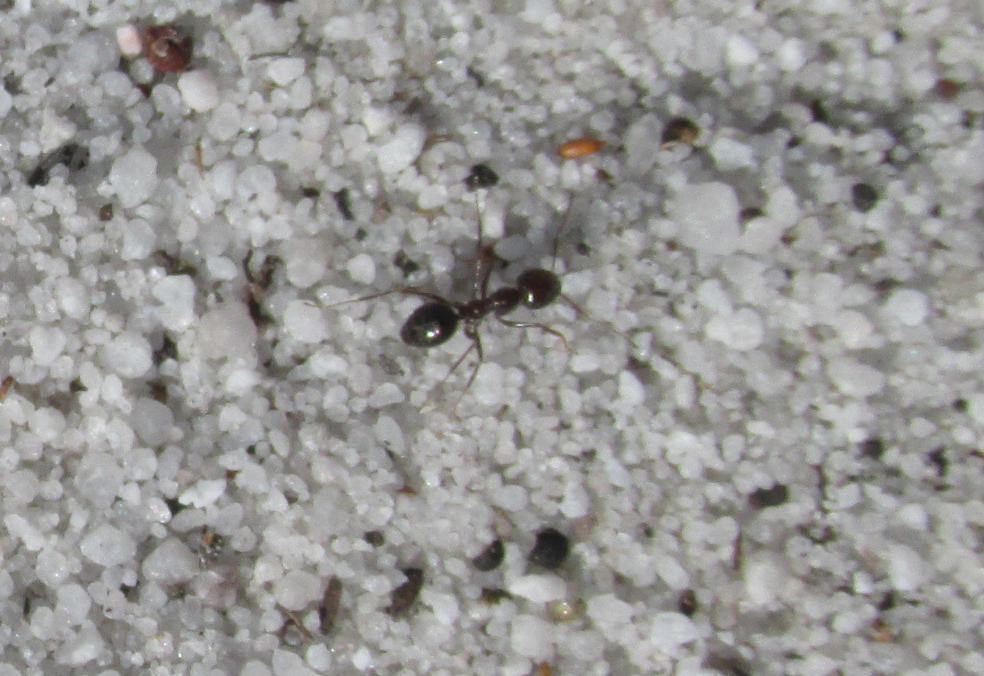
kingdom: Animalia
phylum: Arthropoda
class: Insecta
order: Hymenoptera
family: Formicidae
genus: Lepisiota
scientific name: Lepisiota capensis
